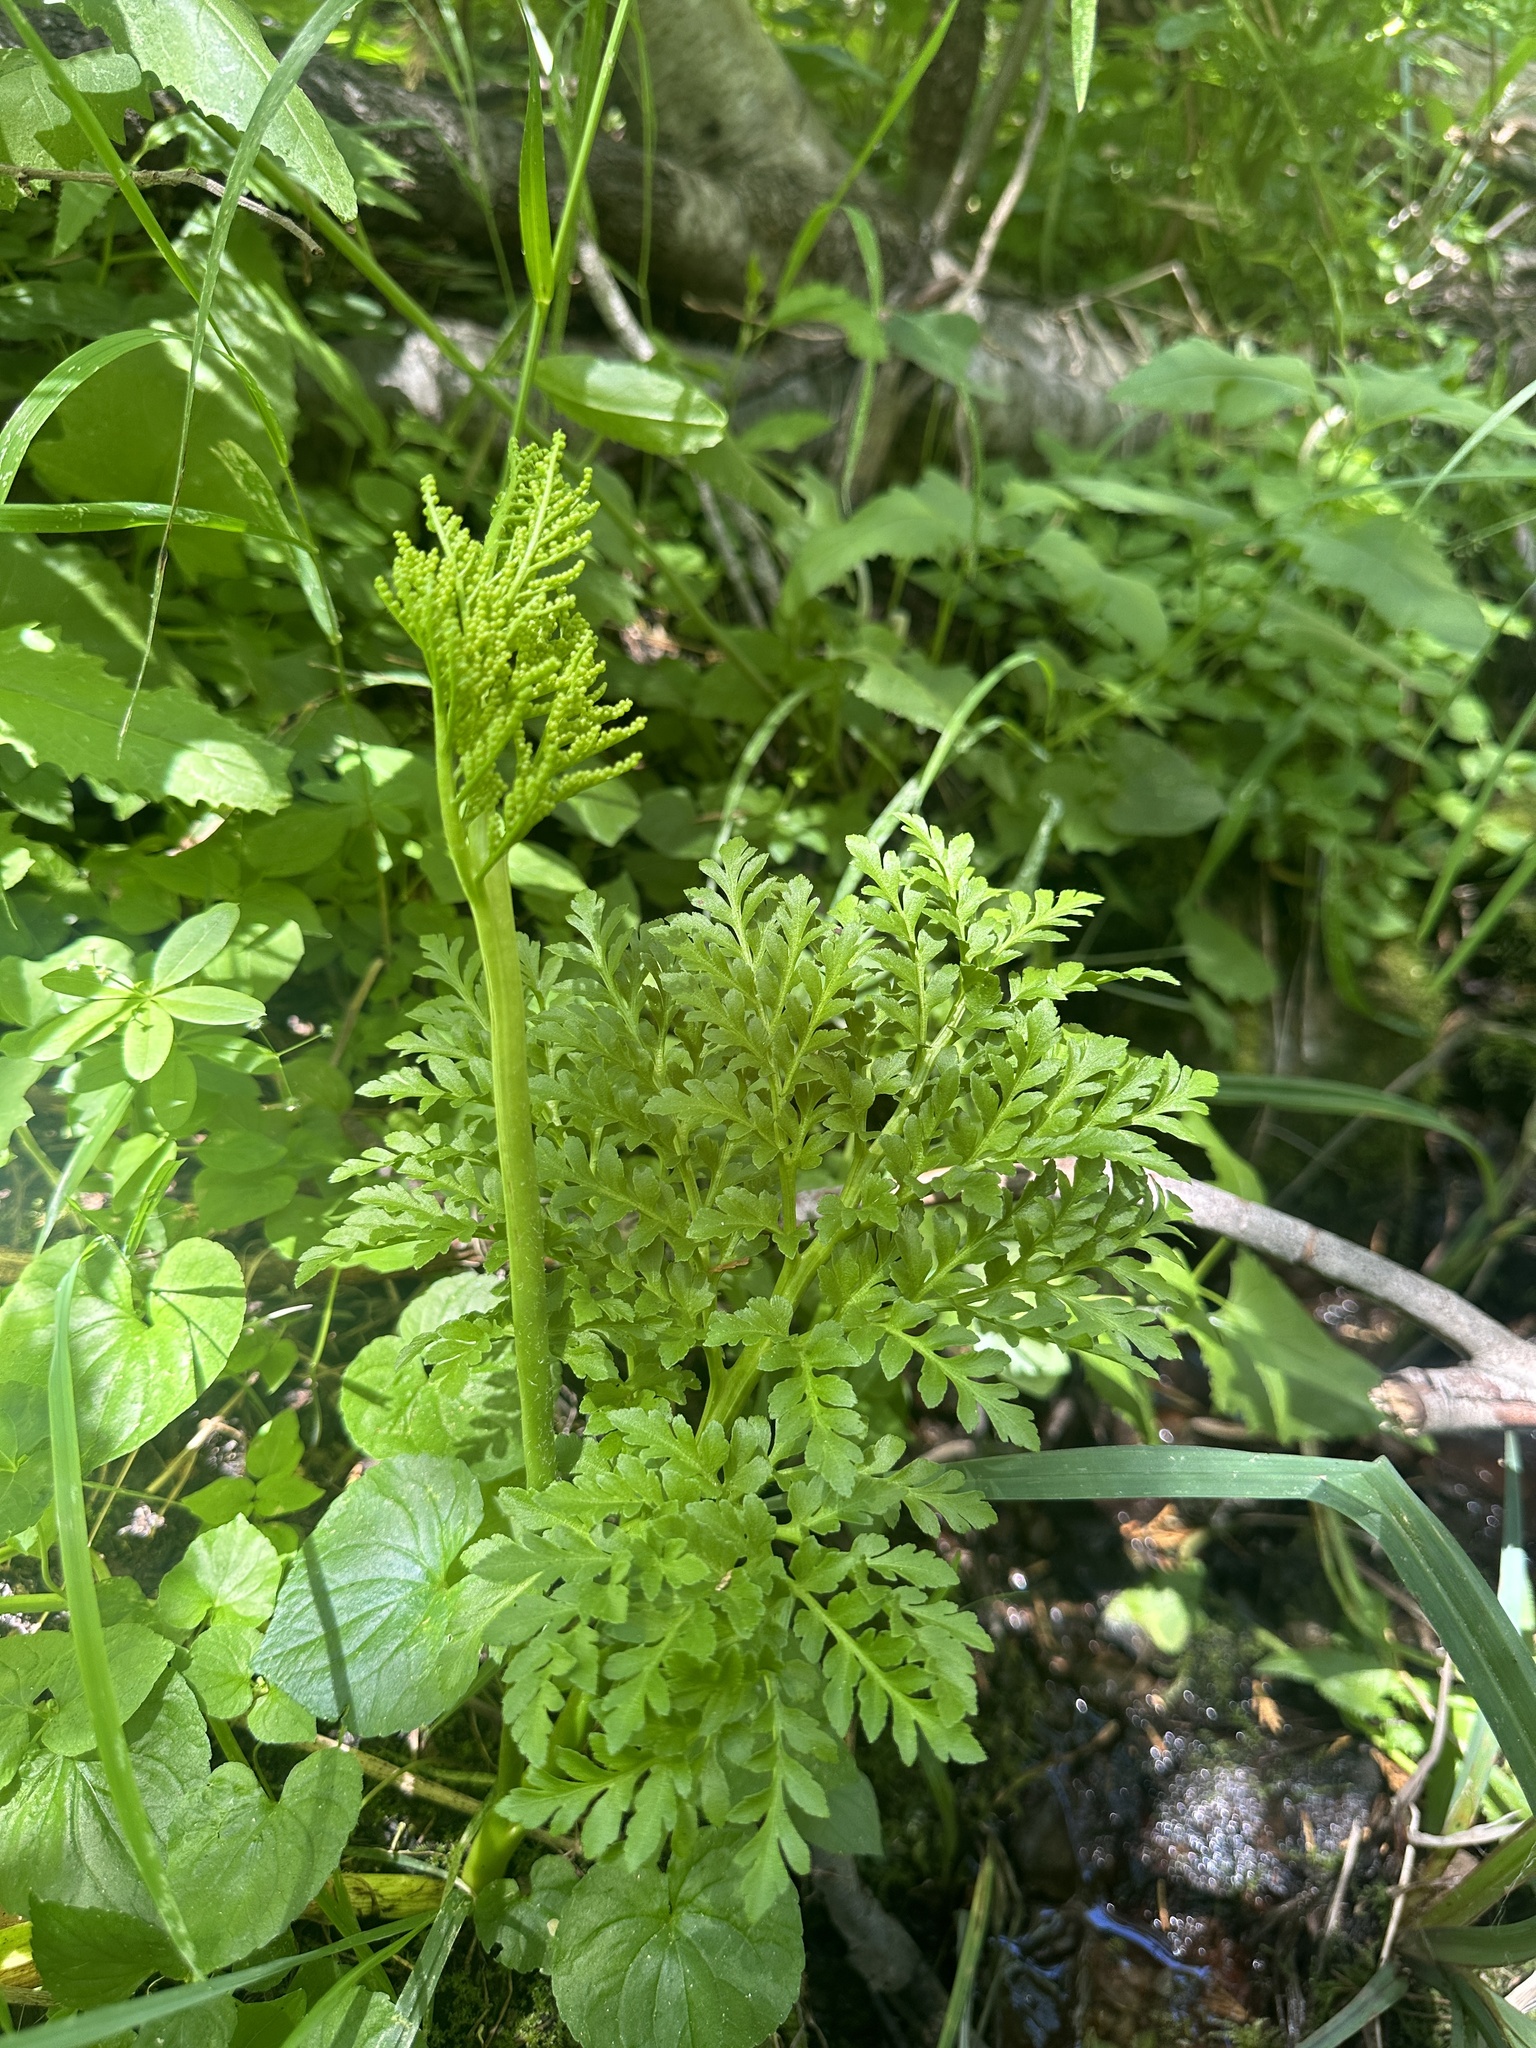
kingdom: Plantae
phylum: Tracheophyta
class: Polypodiopsida
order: Ophioglossales
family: Ophioglossaceae
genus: Sceptridium
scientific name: Sceptridium multifidum
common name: Leathery grape fern
